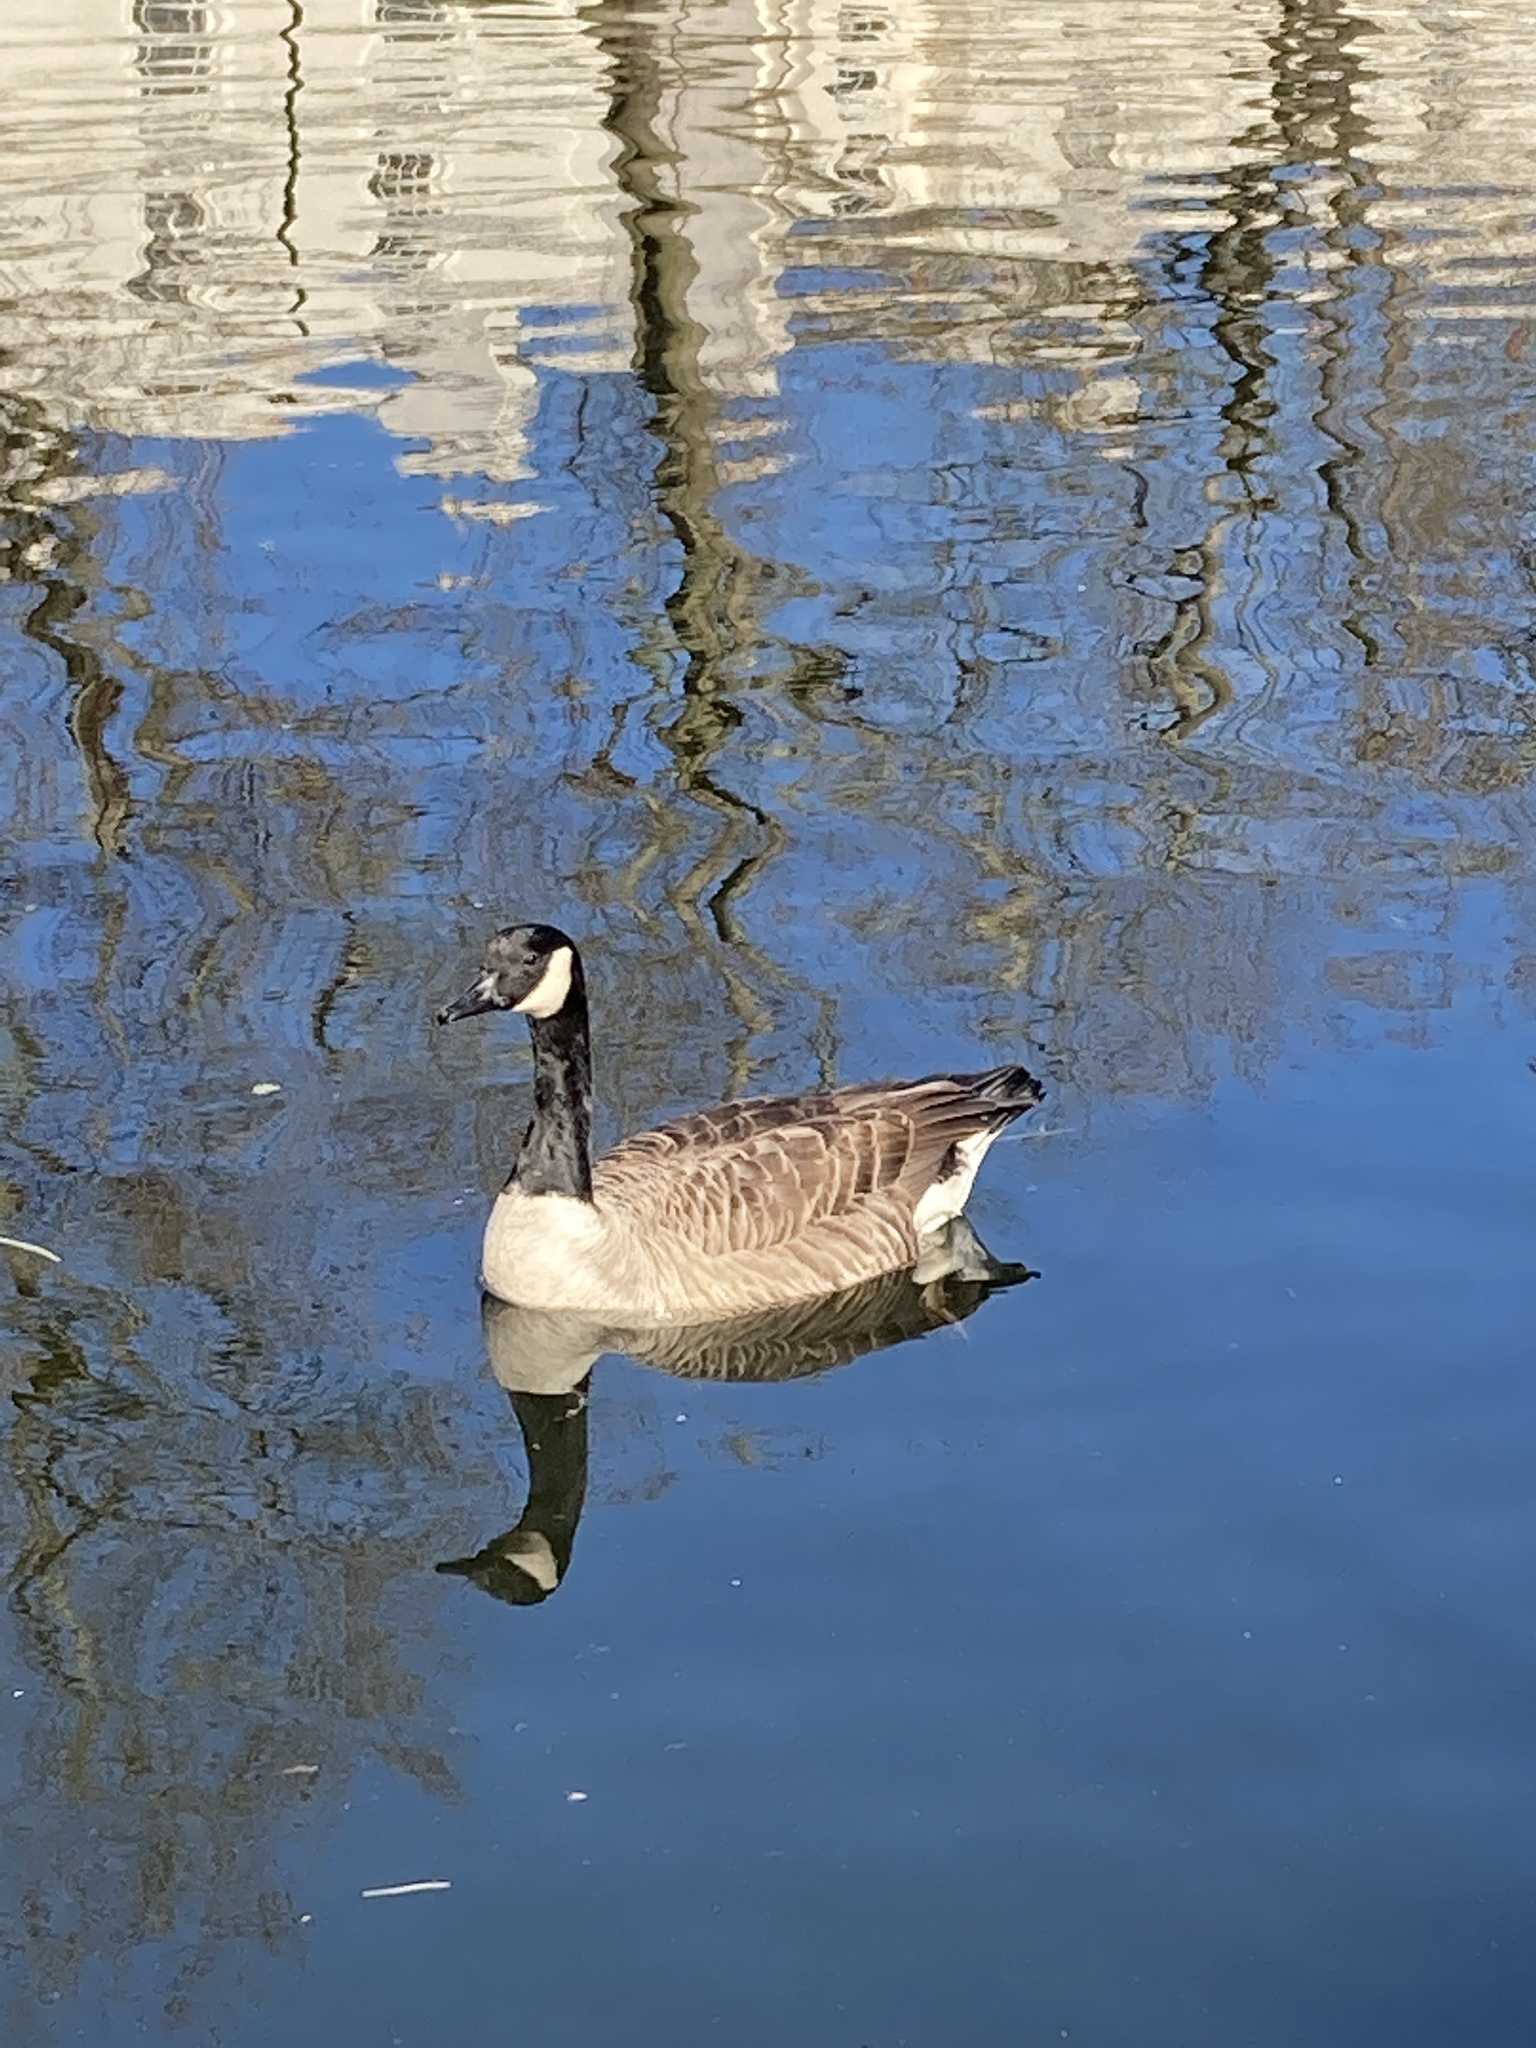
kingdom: Animalia
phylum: Chordata
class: Aves
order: Anseriformes
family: Anatidae
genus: Branta
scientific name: Branta canadensis
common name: Canada goose
